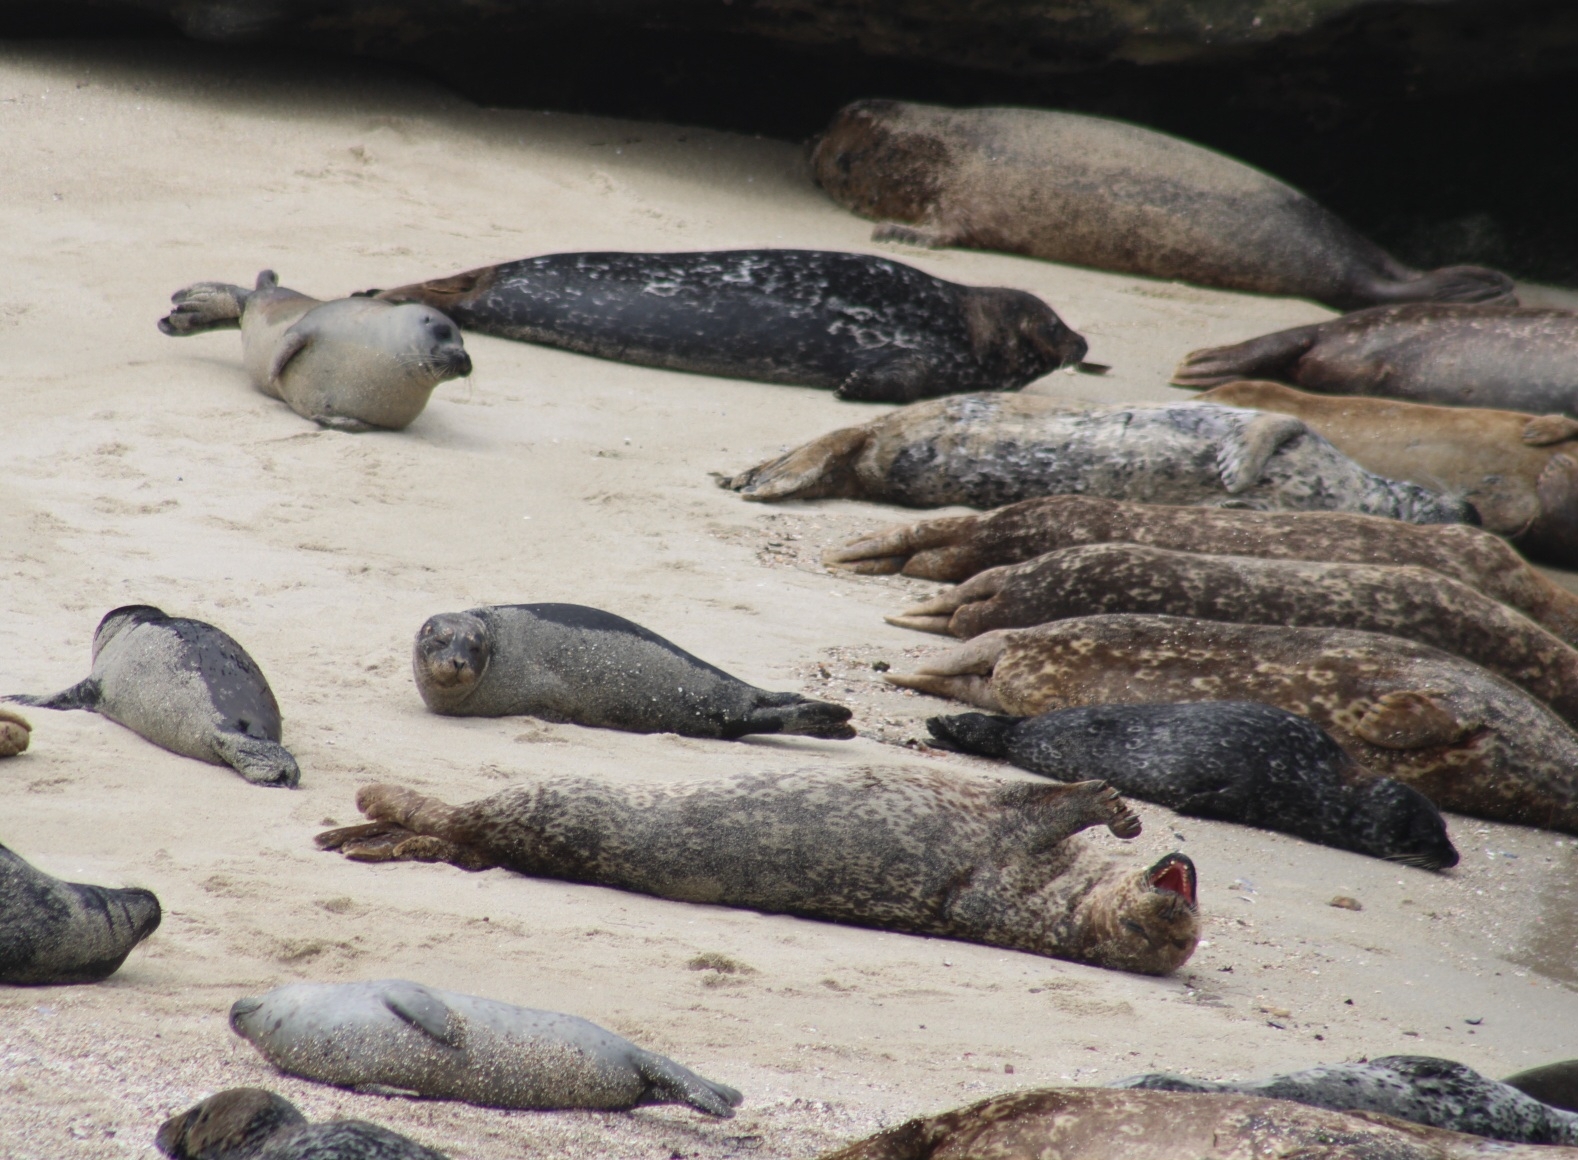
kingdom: Animalia
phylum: Chordata
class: Mammalia
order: Carnivora
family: Phocidae
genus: Phoca
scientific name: Phoca vitulina
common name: Harbor seal
